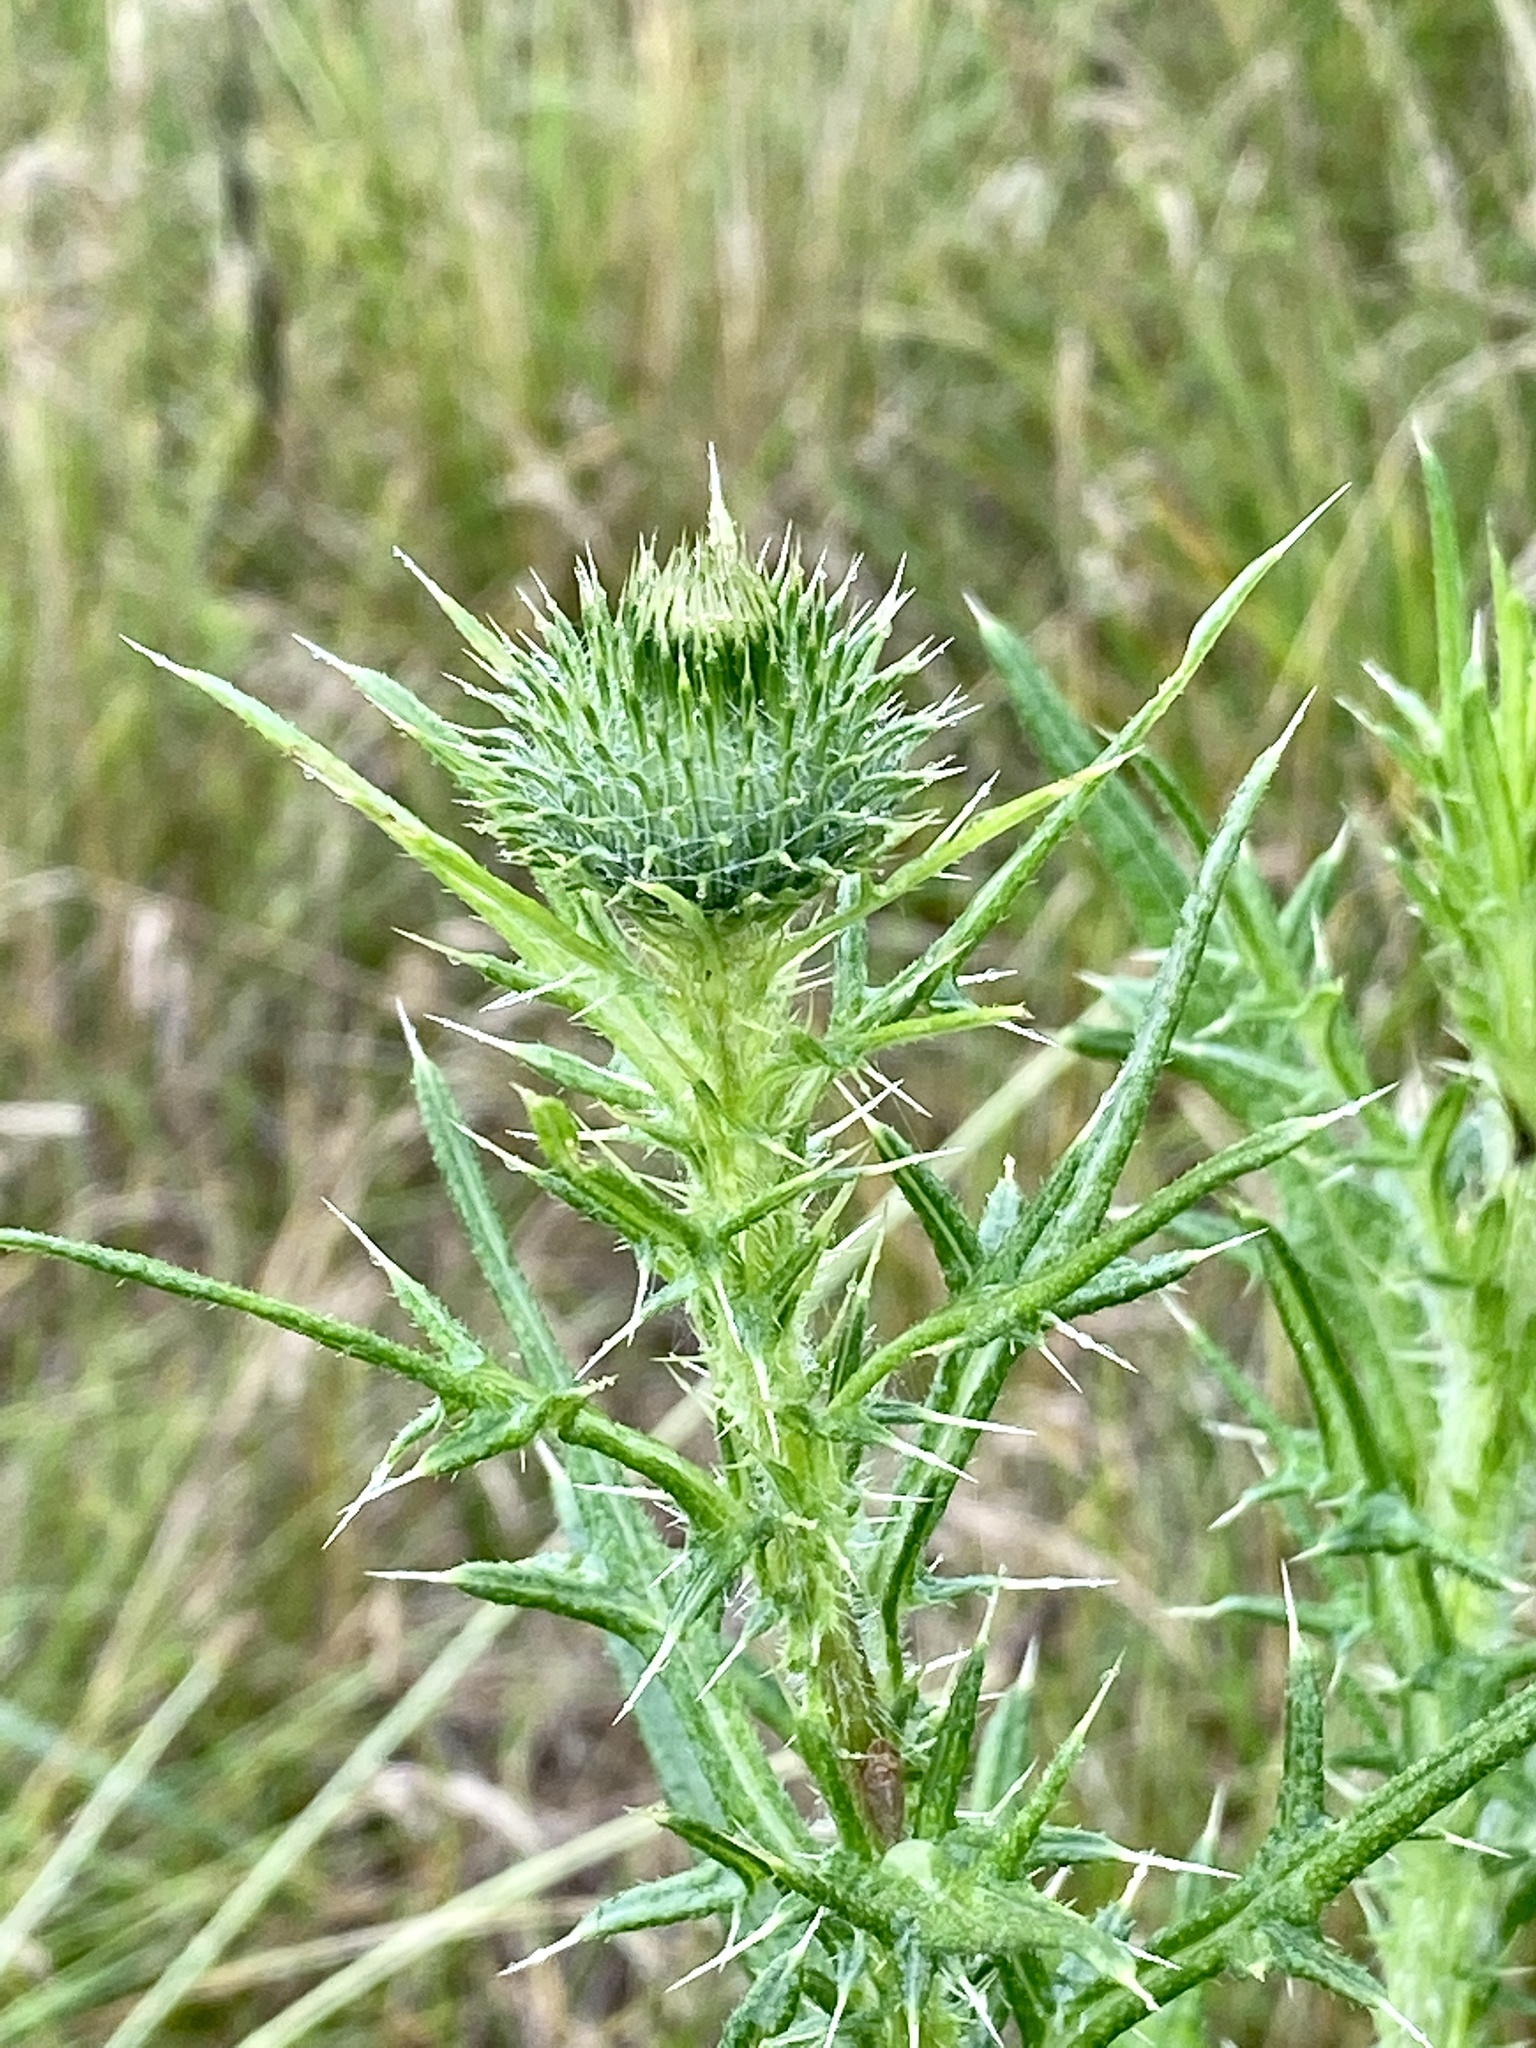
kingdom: Plantae
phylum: Tracheophyta
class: Magnoliopsida
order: Asterales
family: Asteraceae
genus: Cirsium
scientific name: Cirsium vulgare
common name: Bull thistle
